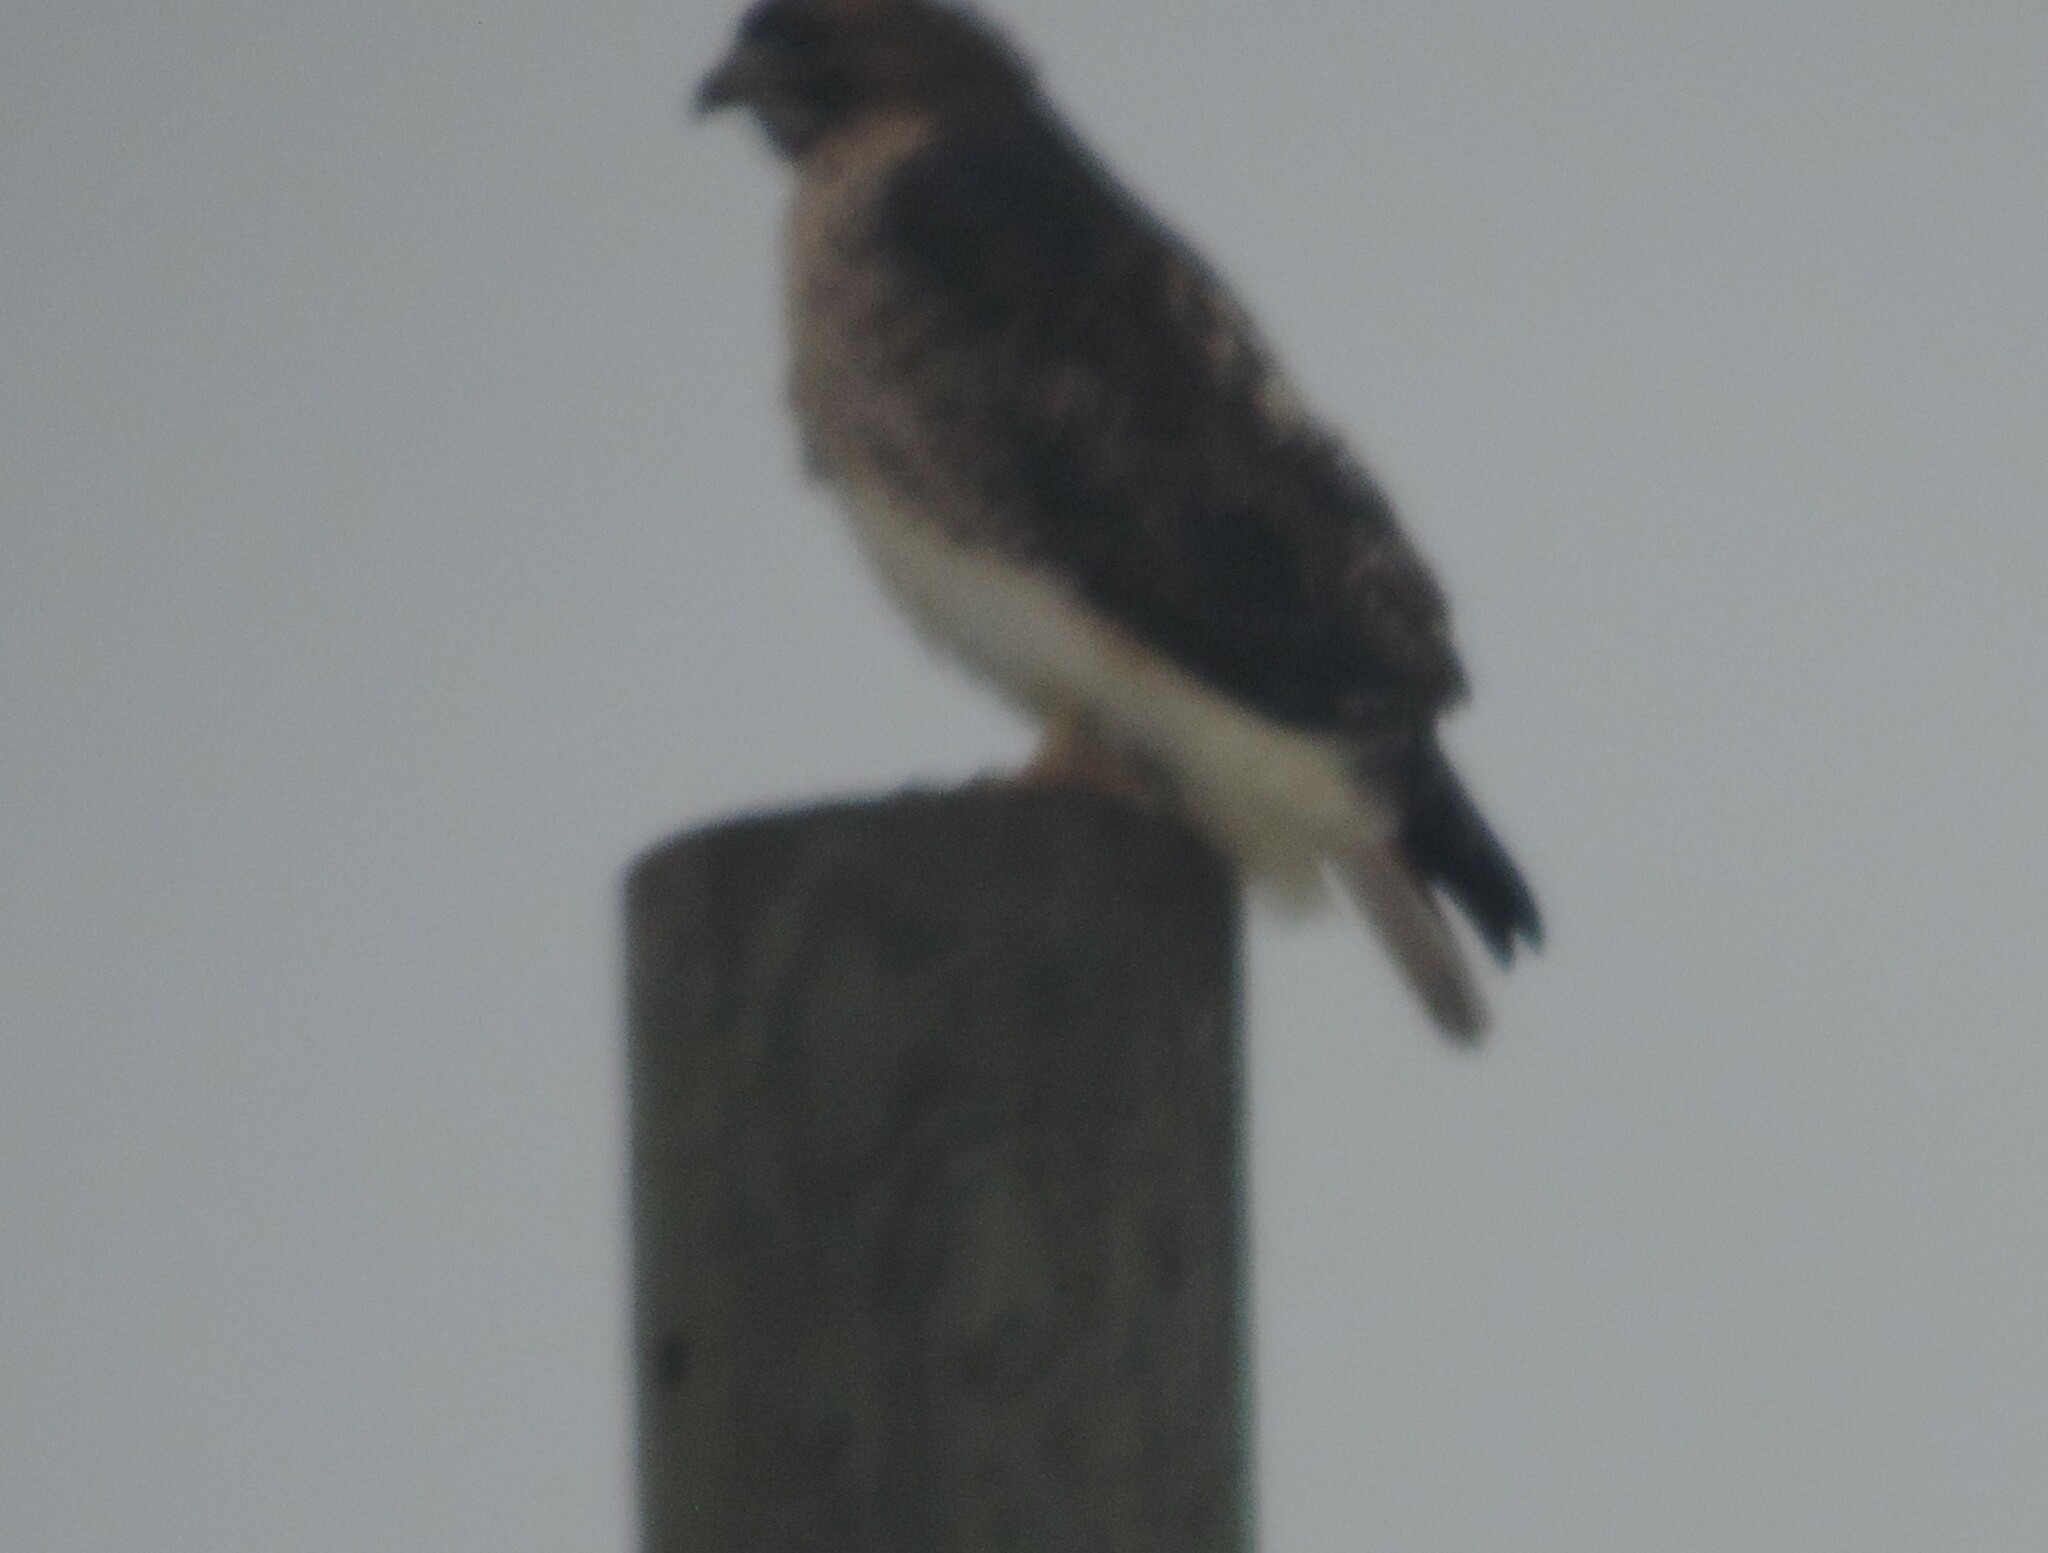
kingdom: Animalia
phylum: Chordata
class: Aves
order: Accipitriformes
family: Accipitridae
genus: Buteo
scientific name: Buteo jamaicensis
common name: Red-tailed hawk
